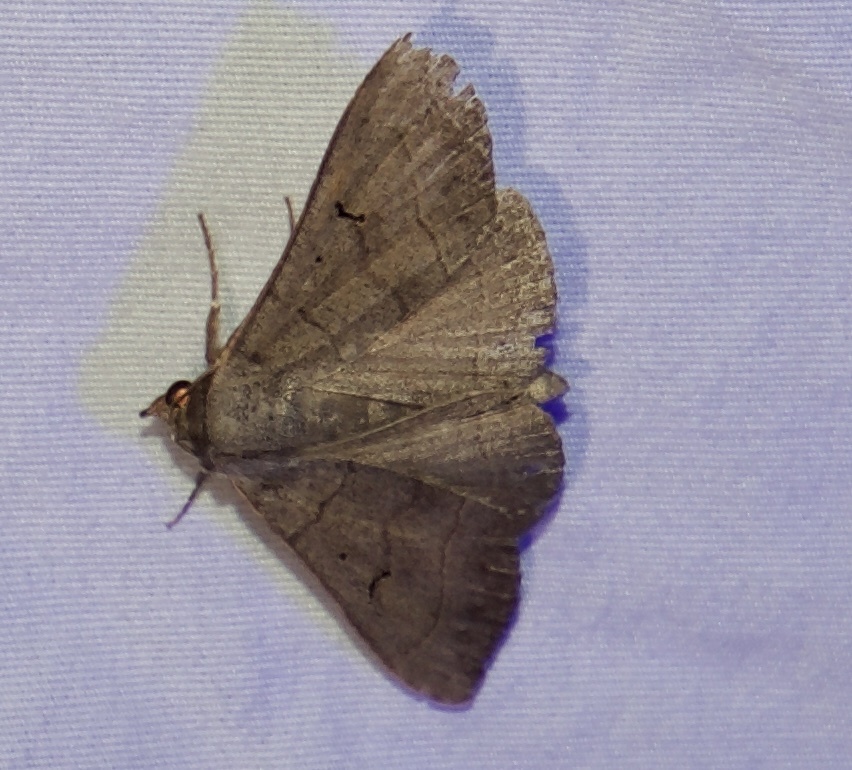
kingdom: Animalia
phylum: Arthropoda
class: Insecta
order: Lepidoptera
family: Erebidae
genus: Panopoda
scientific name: Panopoda carneicosta
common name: Brown panopoda moth
